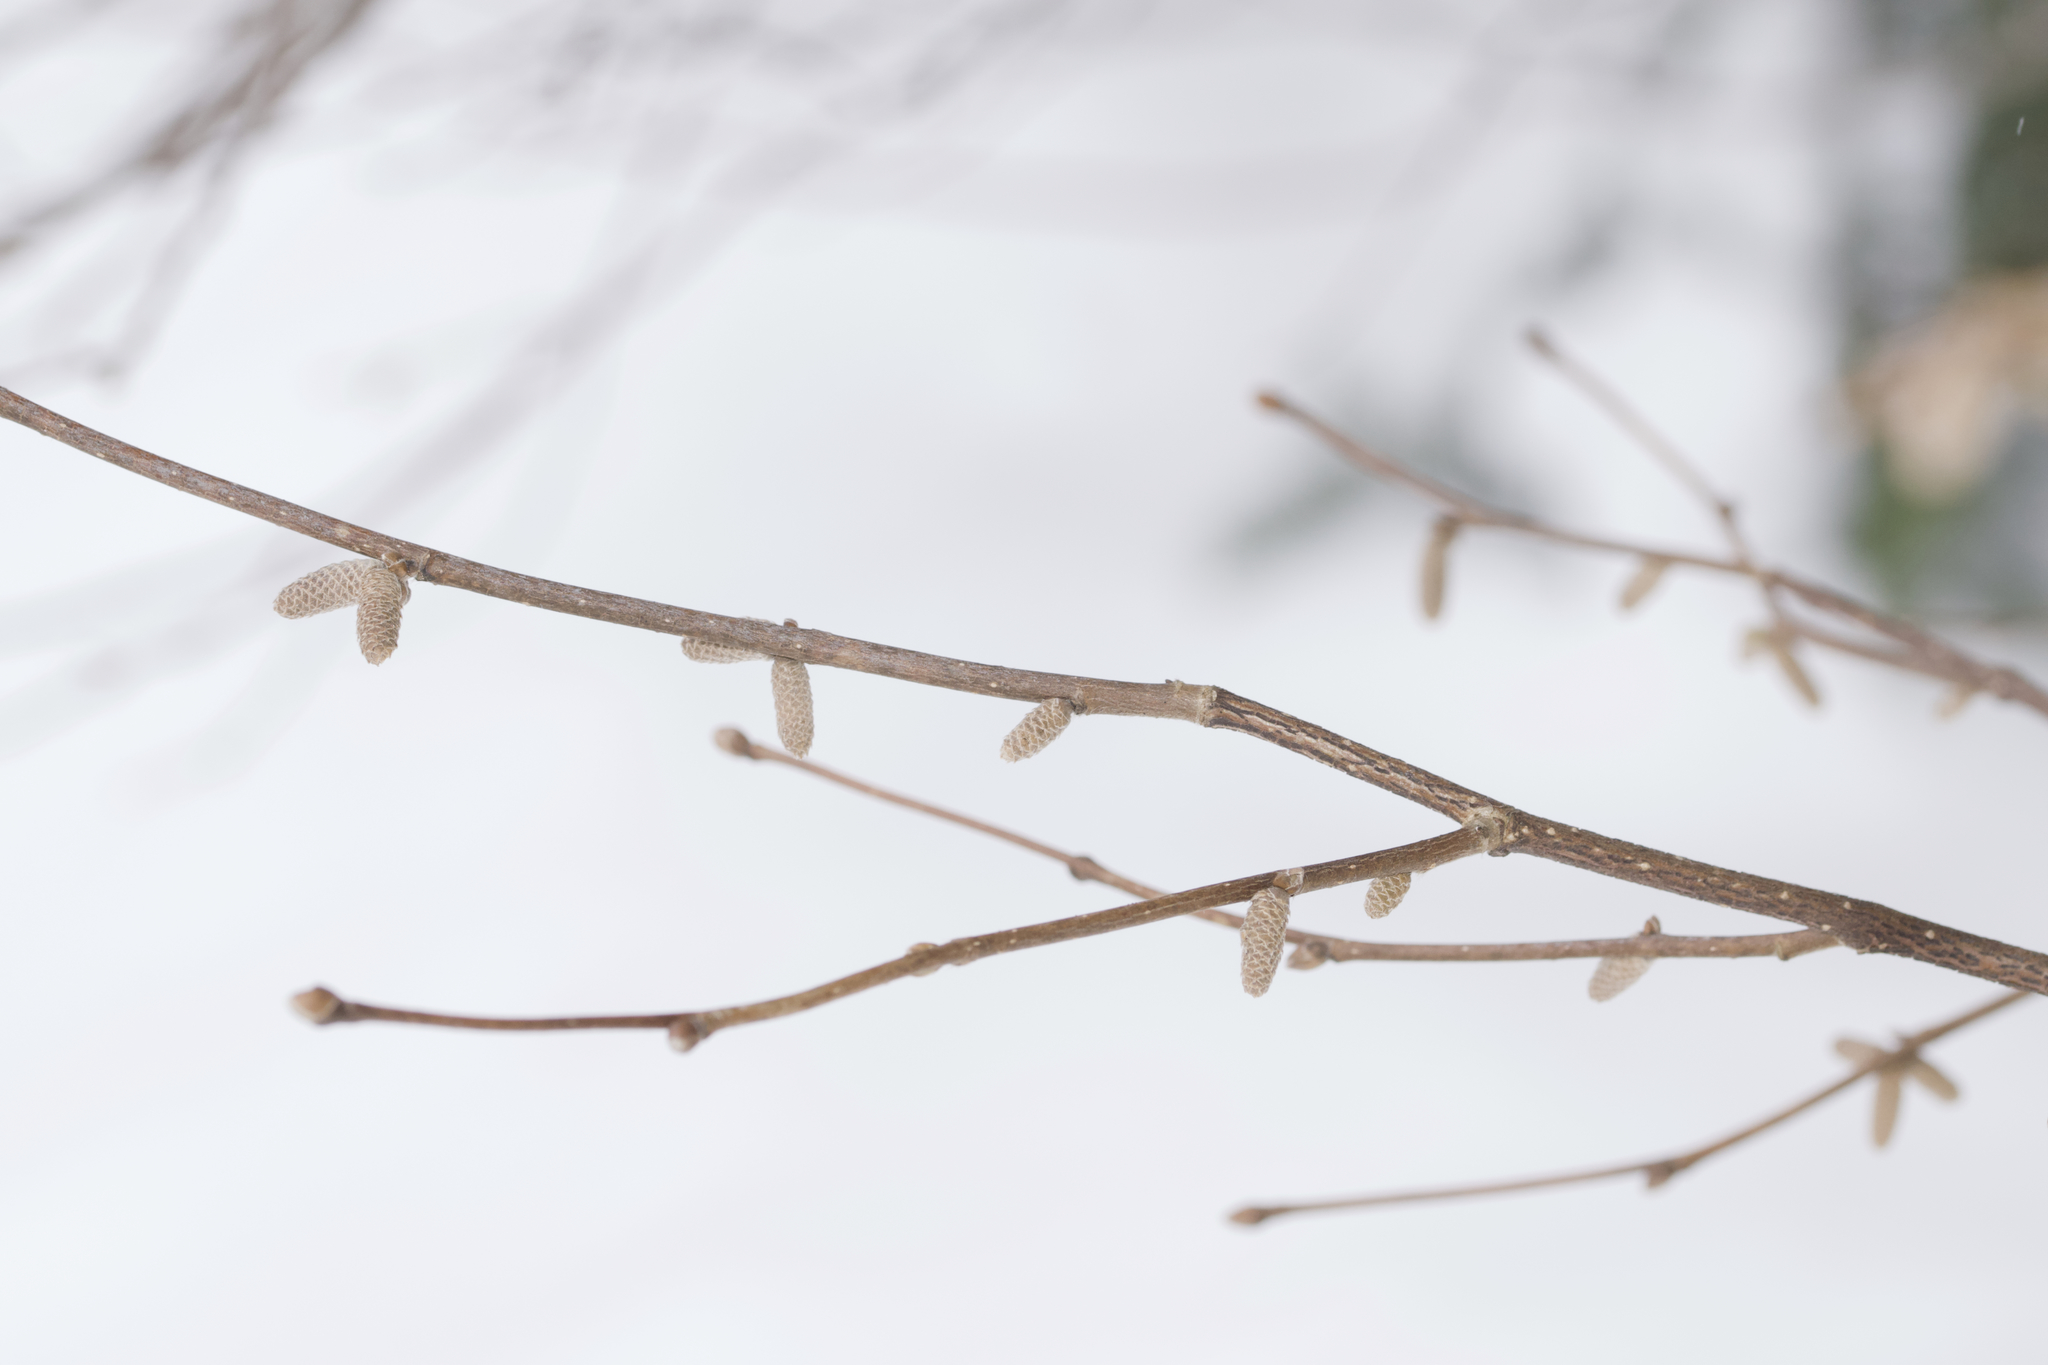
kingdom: Plantae
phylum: Tracheophyta
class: Magnoliopsida
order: Fagales
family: Betulaceae
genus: Corylus
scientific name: Corylus cornuta
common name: Beaked hazel
